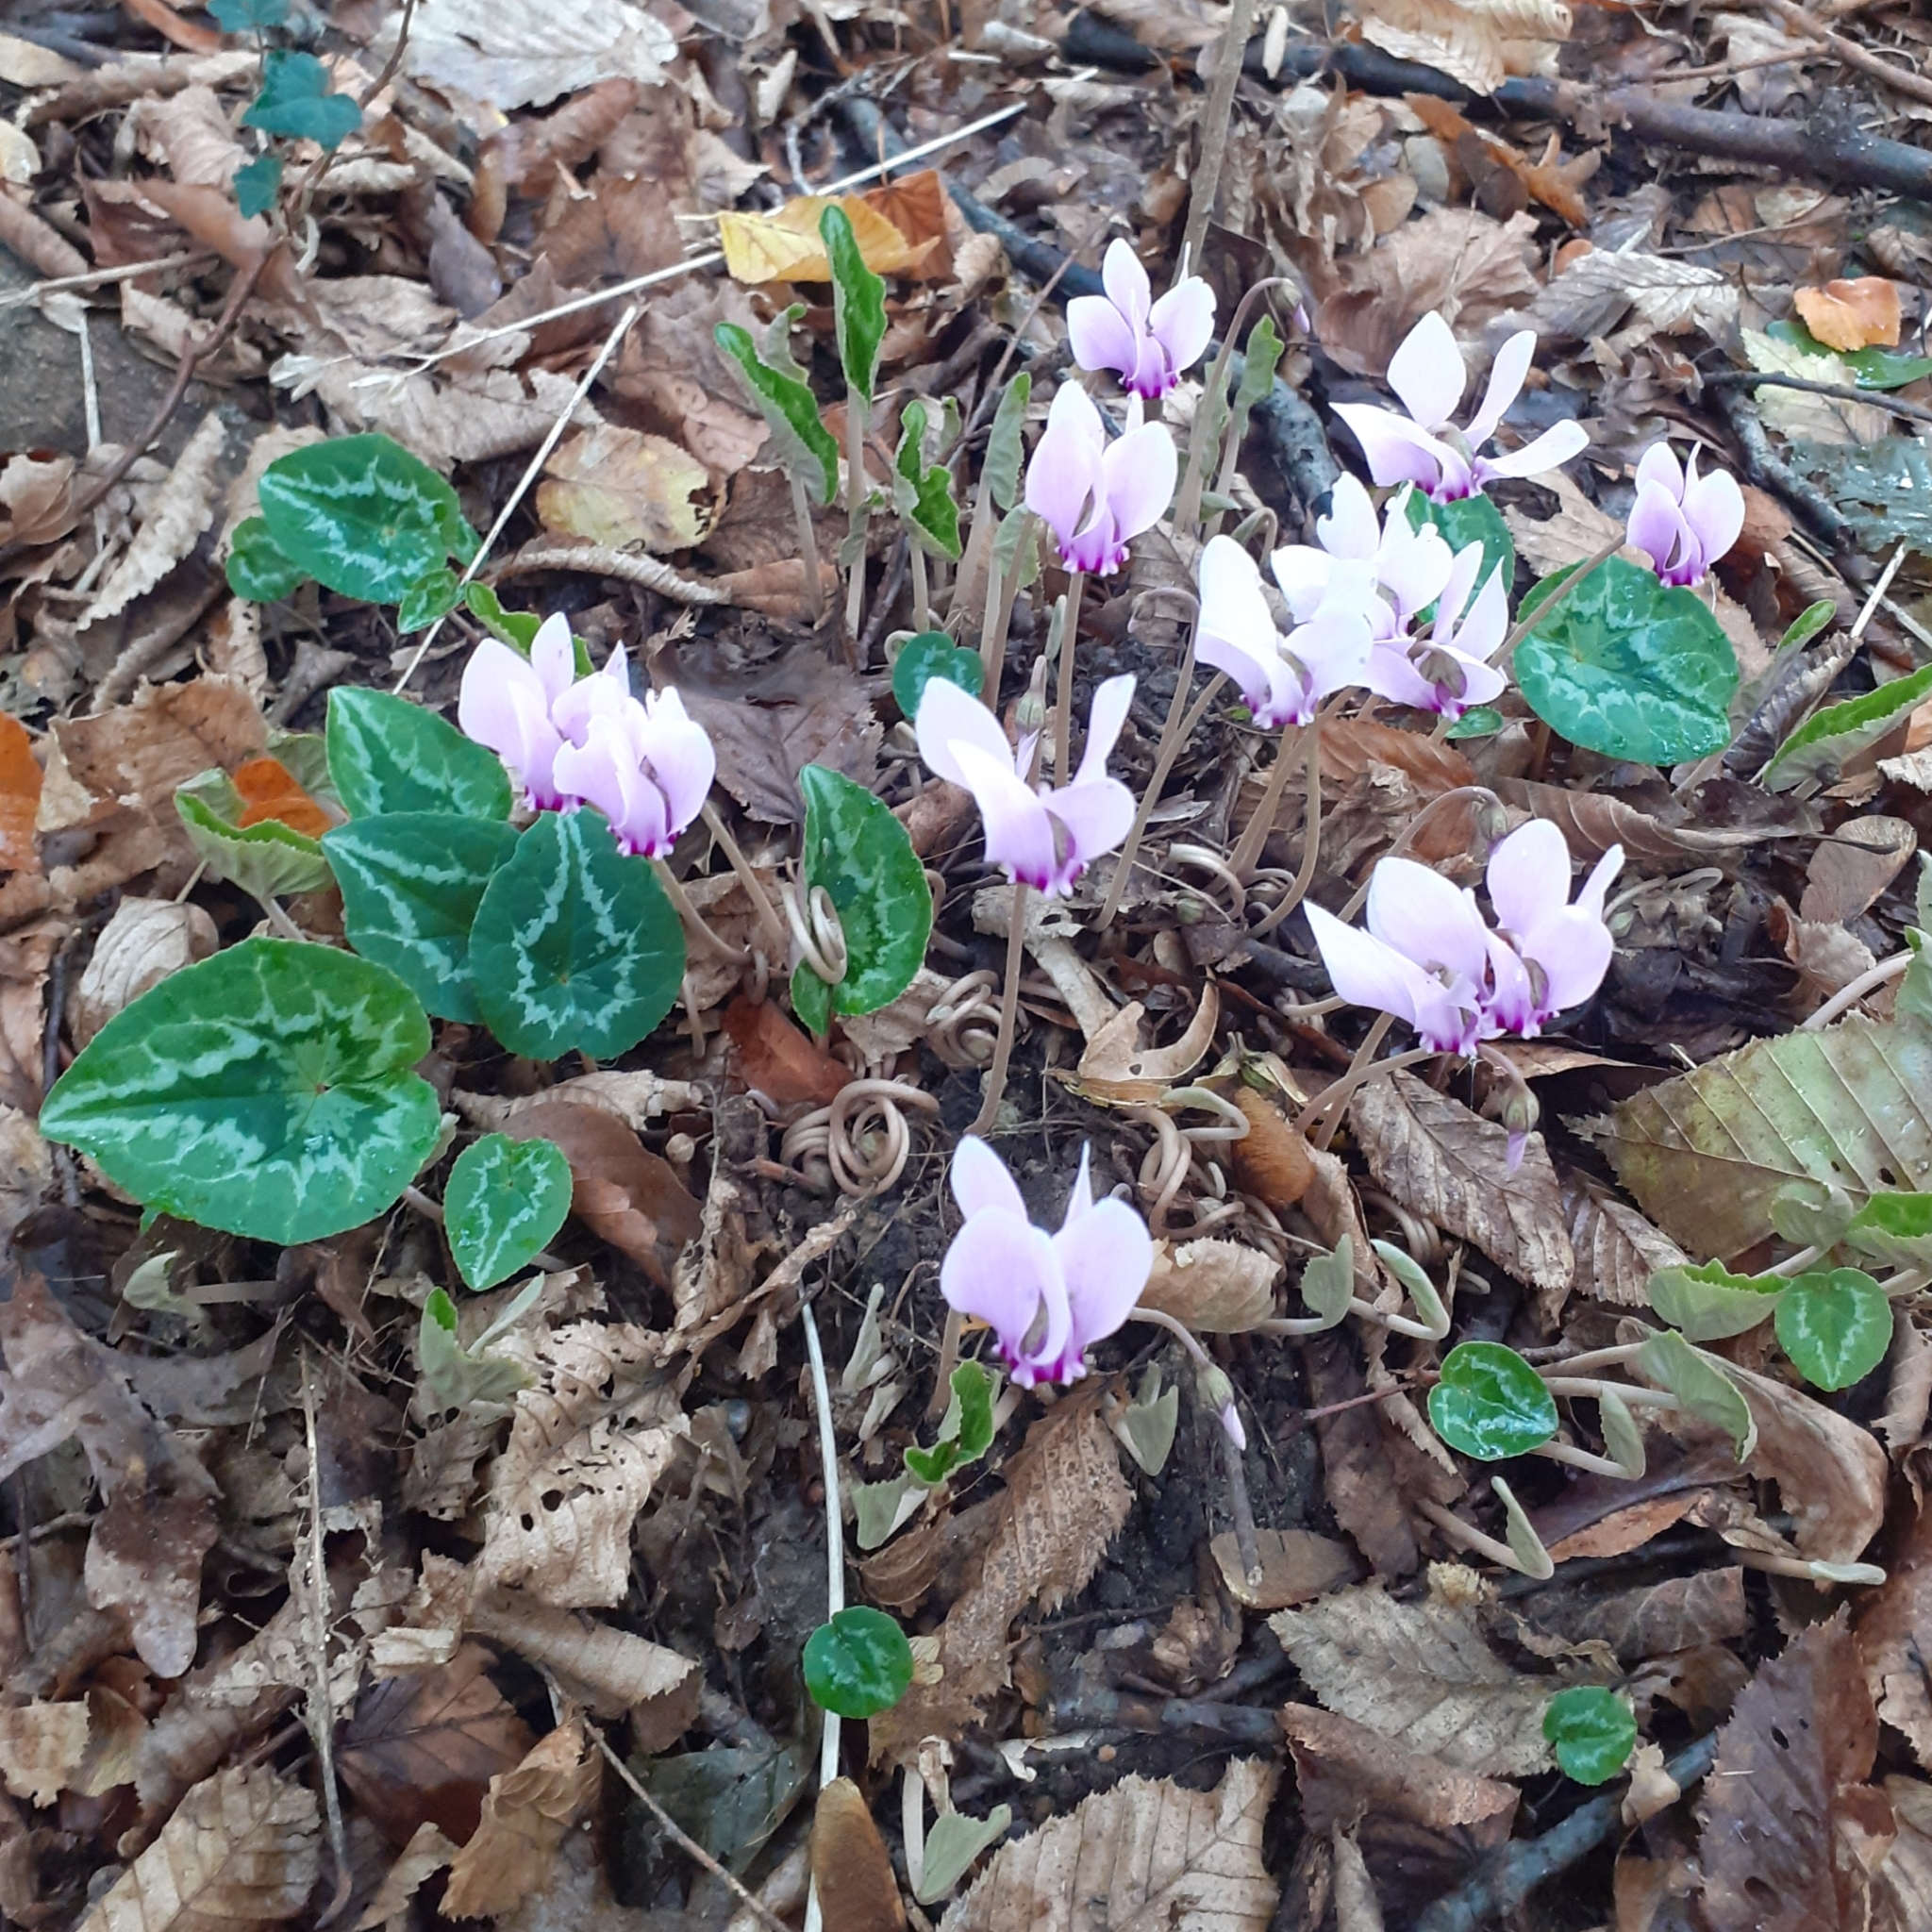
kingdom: Plantae
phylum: Tracheophyta
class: Magnoliopsida
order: Ericales
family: Primulaceae
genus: Cyclamen
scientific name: Cyclamen hederifolium
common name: Sowbread
